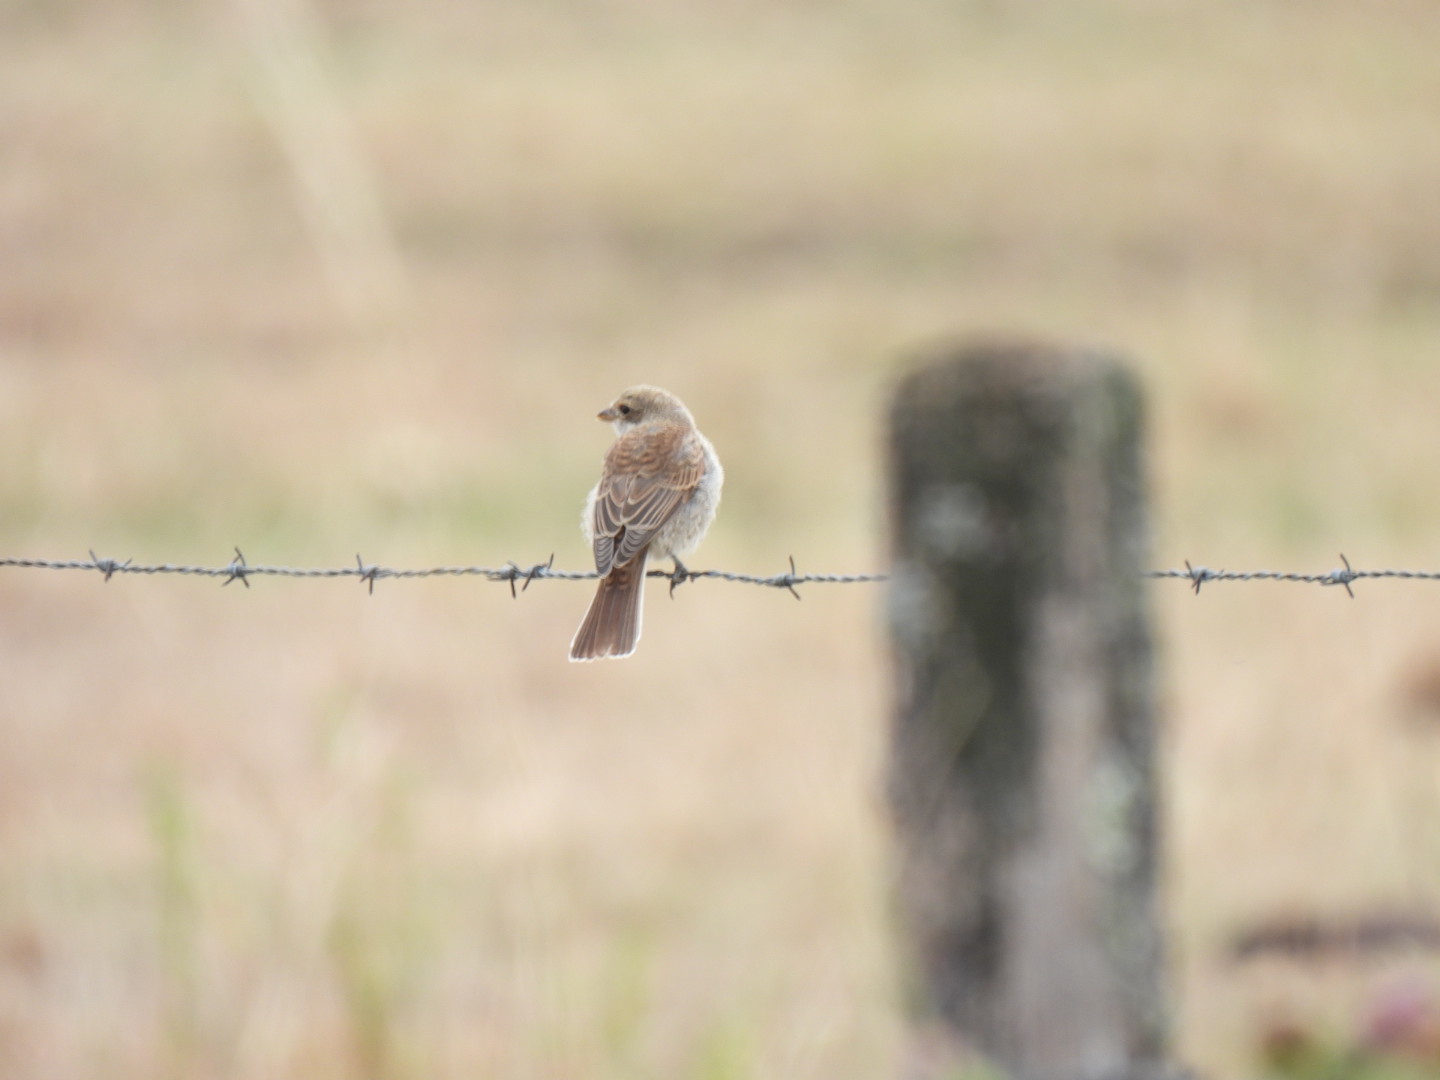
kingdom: Animalia
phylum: Chordata
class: Aves
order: Passeriformes
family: Laniidae
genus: Lanius
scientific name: Lanius collurio
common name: Red-backed shrike
